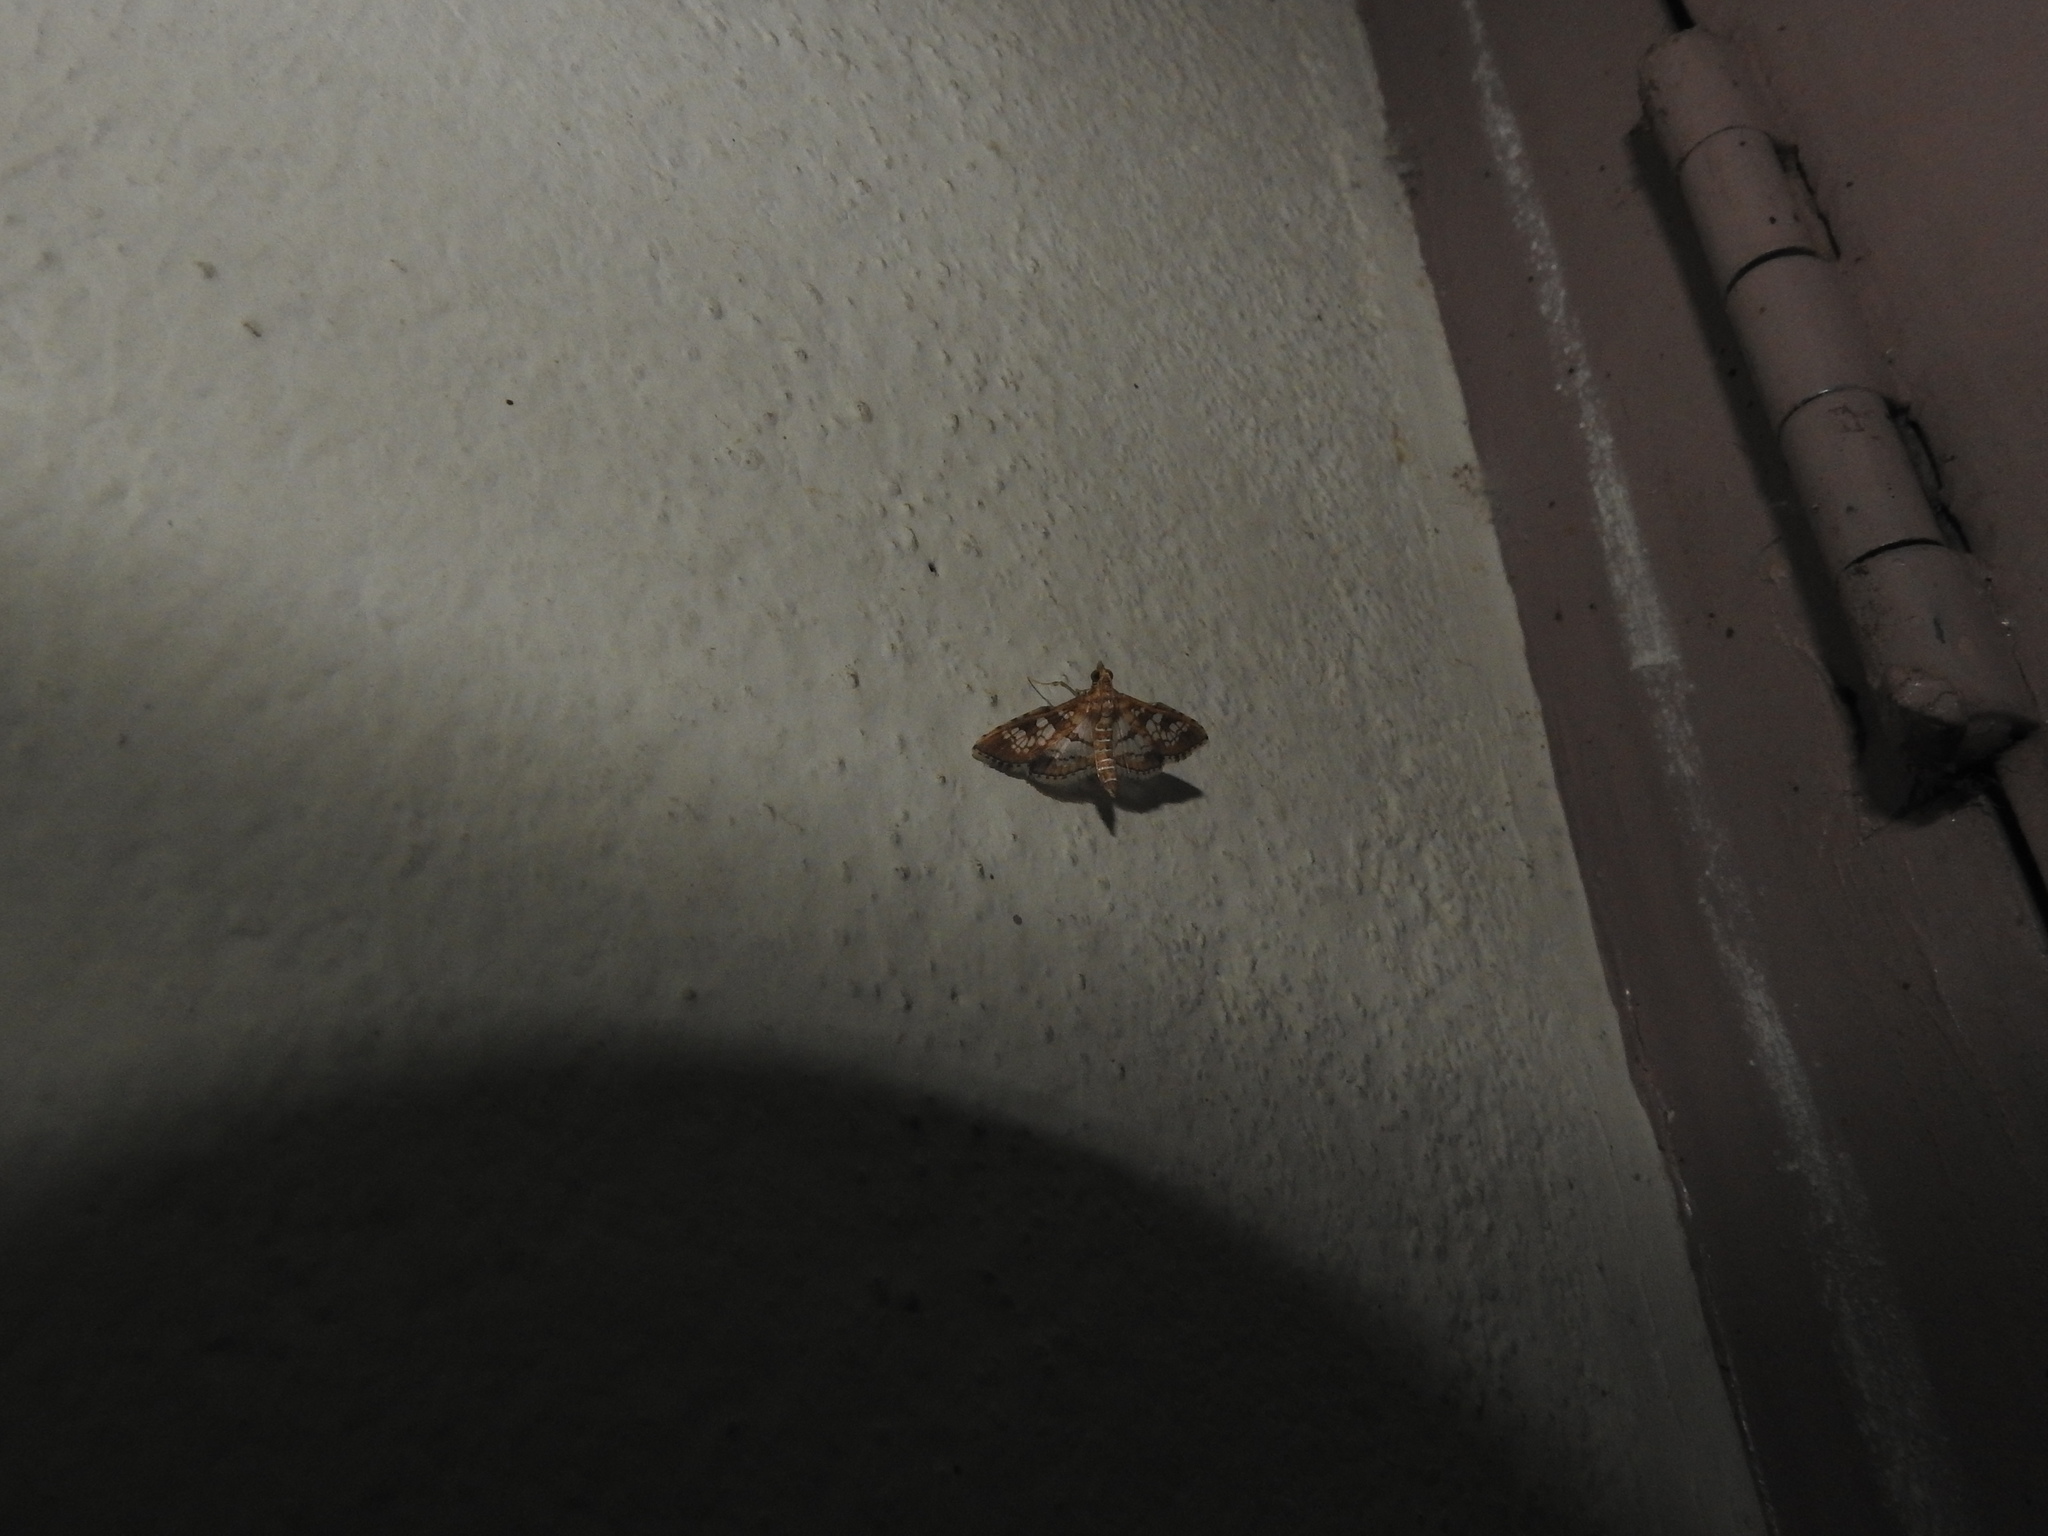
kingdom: Animalia
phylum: Arthropoda
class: Insecta
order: Lepidoptera
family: Crambidae
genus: Sameodes
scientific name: Sameodes cancellalis
